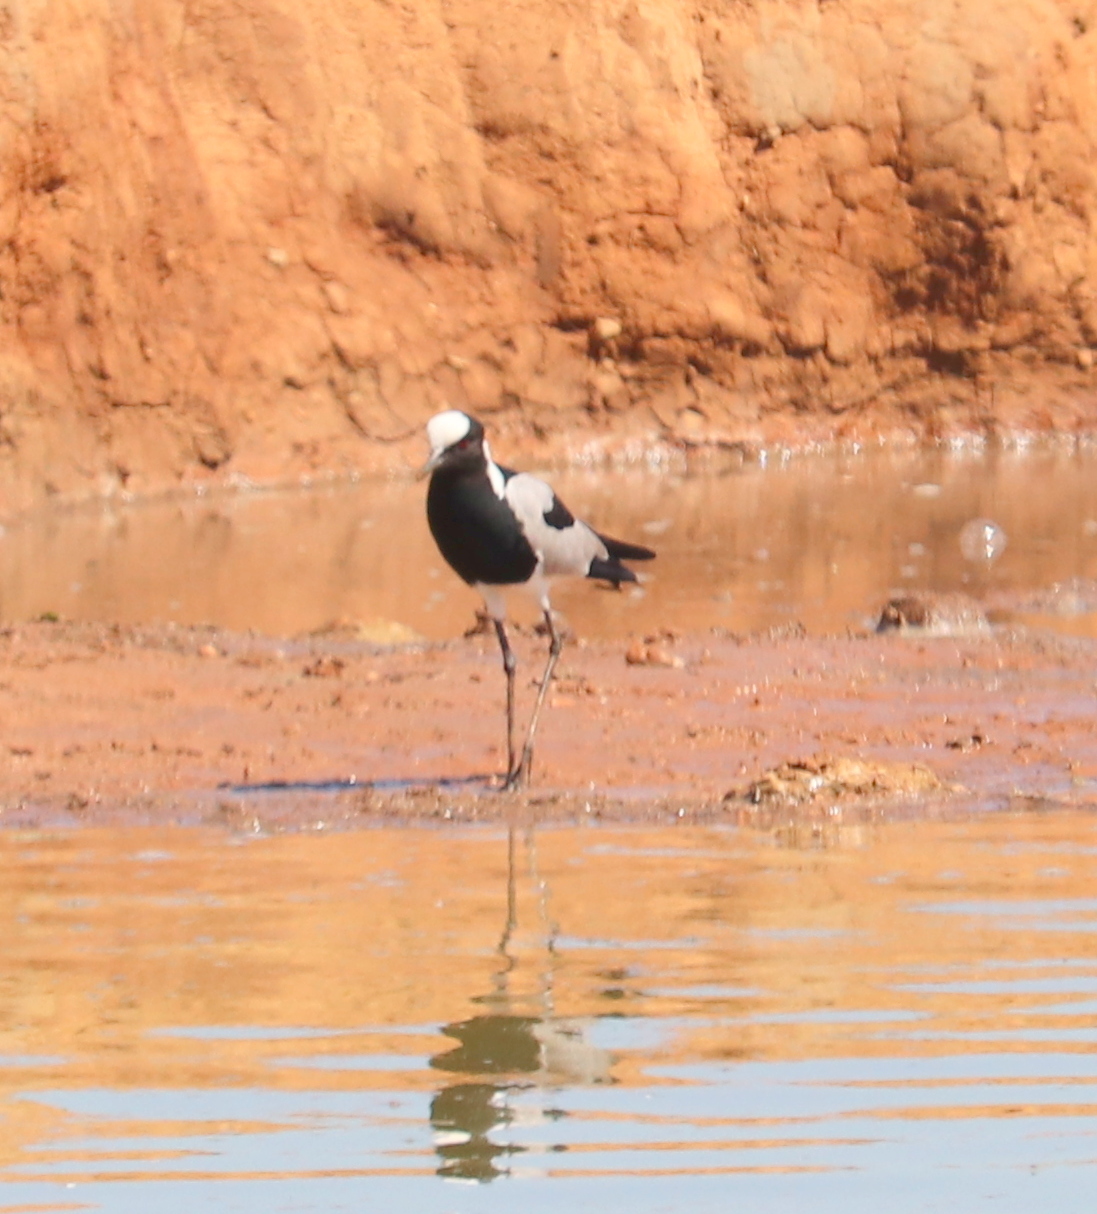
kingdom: Animalia
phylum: Chordata
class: Aves
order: Charadriiformes
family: Charadriidae
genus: Vanellus
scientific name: Vanellus armatus
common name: Blacksmith lapwing
